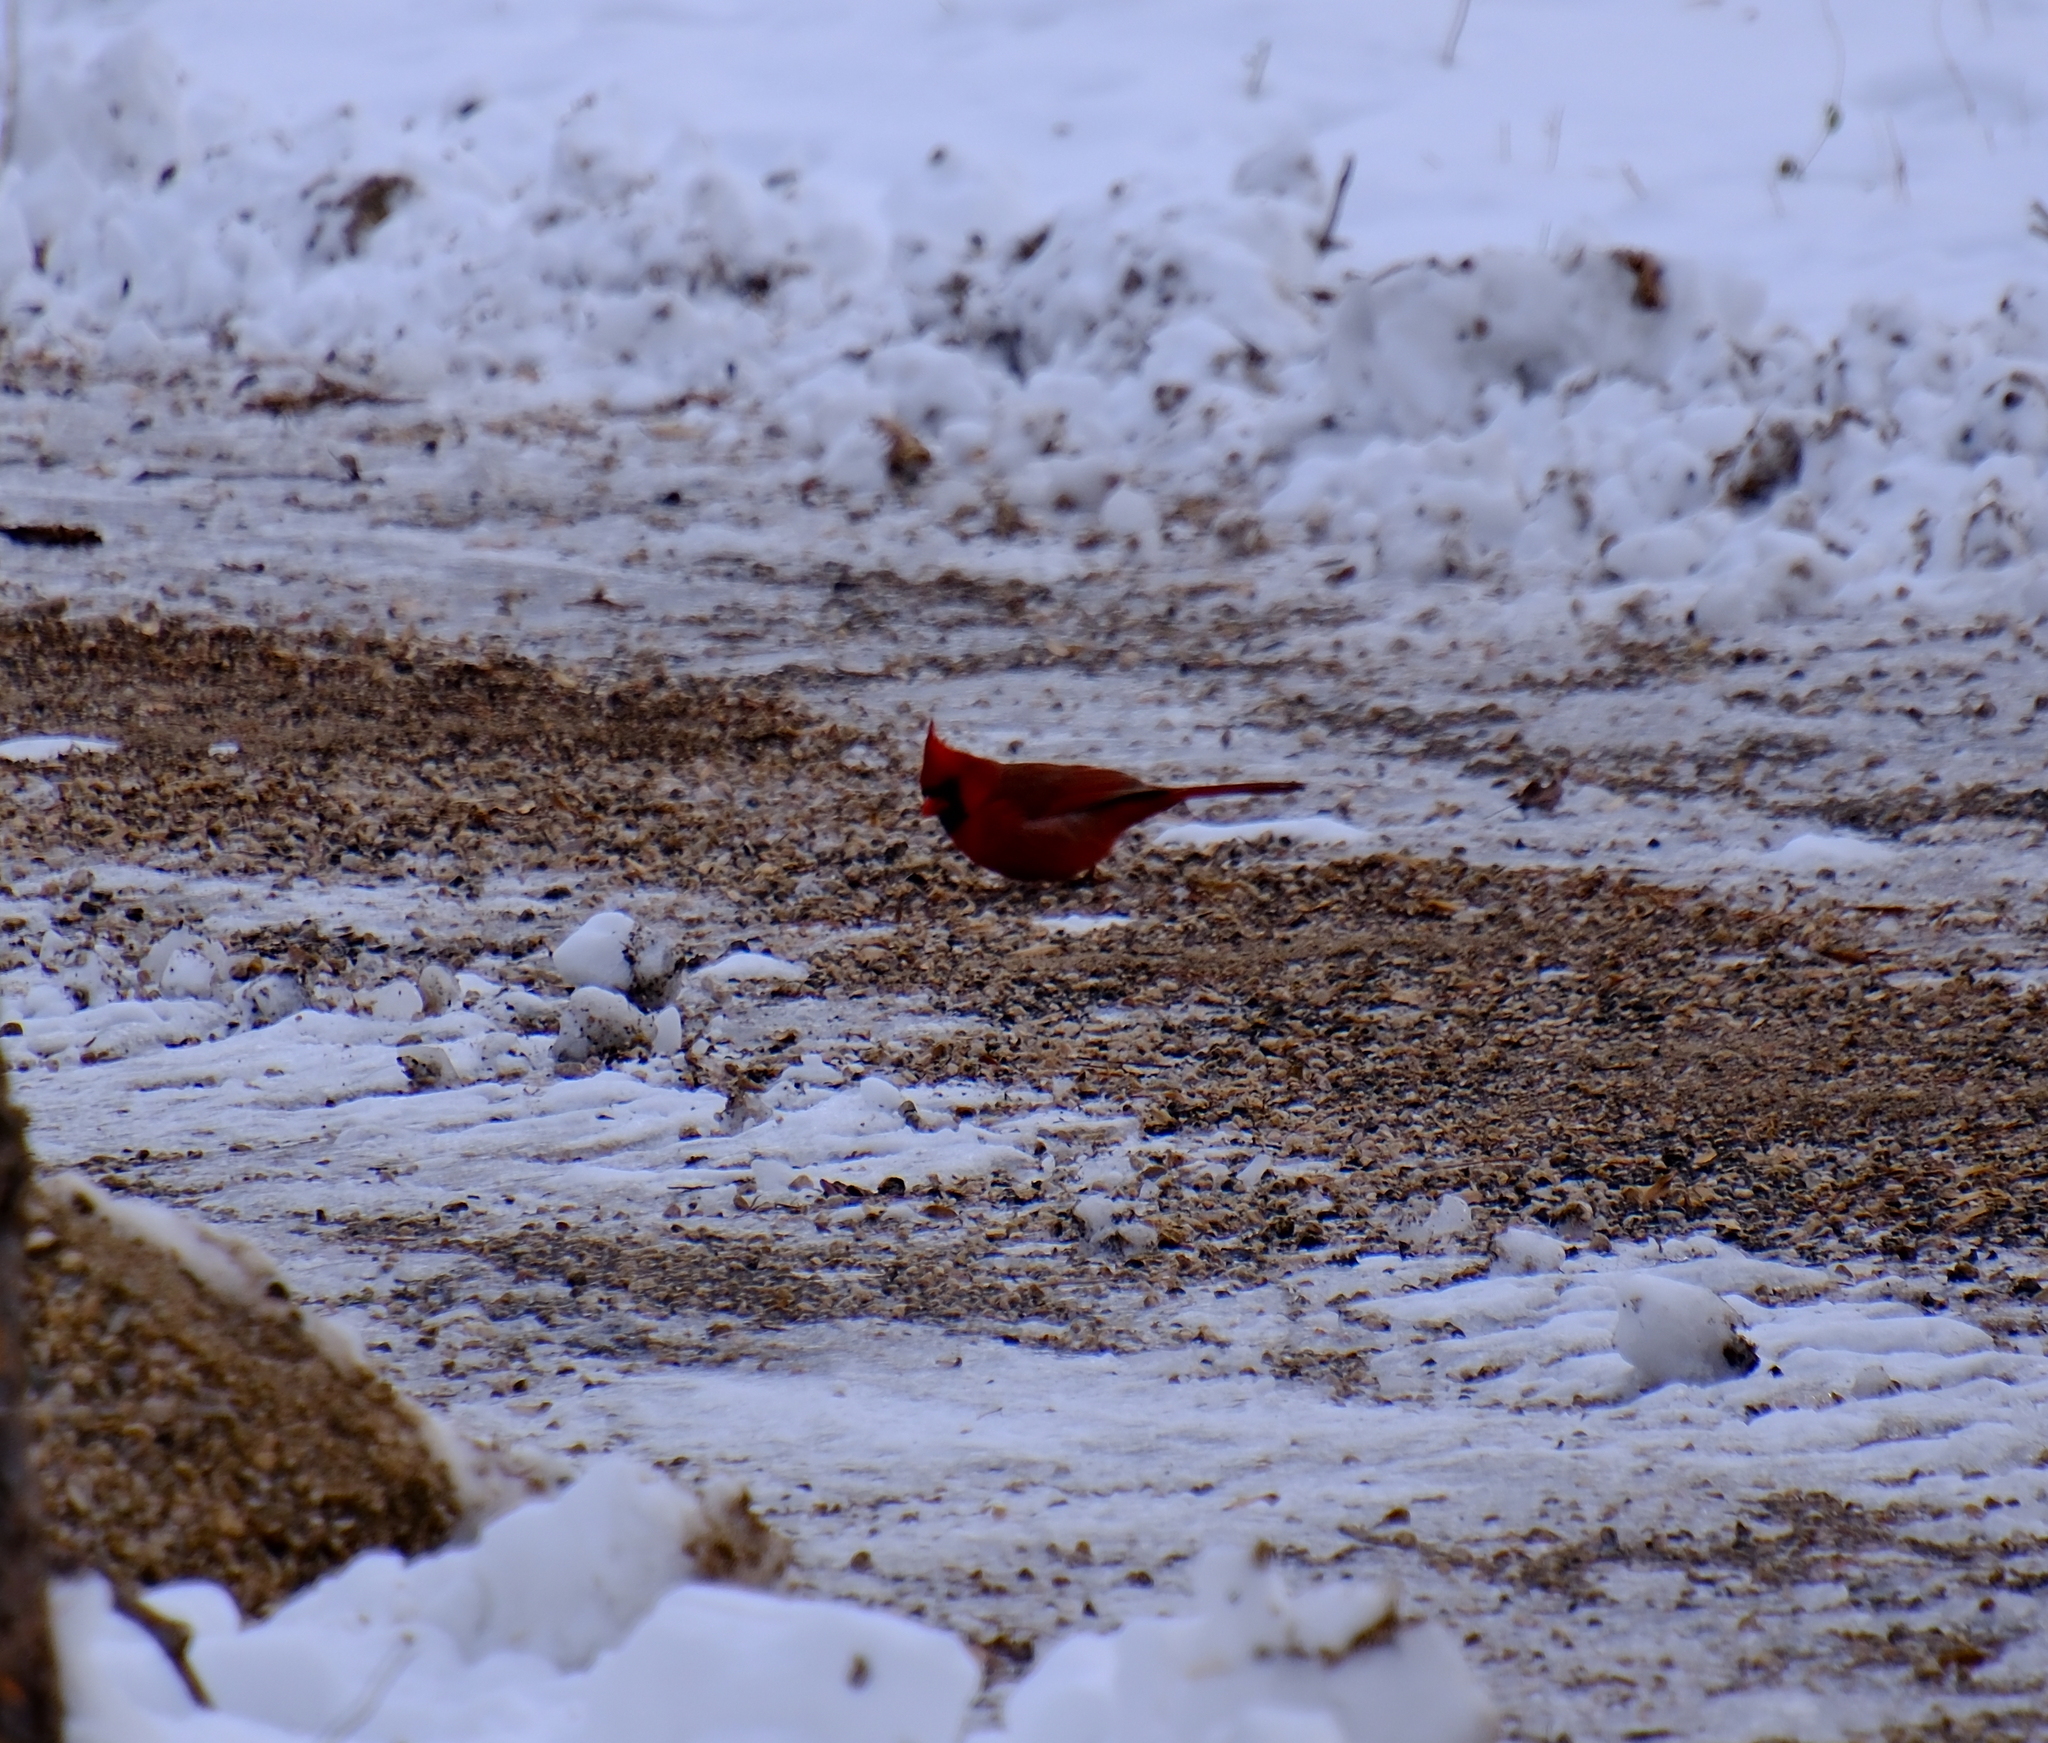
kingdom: Animalia
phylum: Chordata
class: Aves
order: Passeriformes
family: Cardinalidae
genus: Cardinalis
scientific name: Cardinalis cardinalis
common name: Northern cardinal
